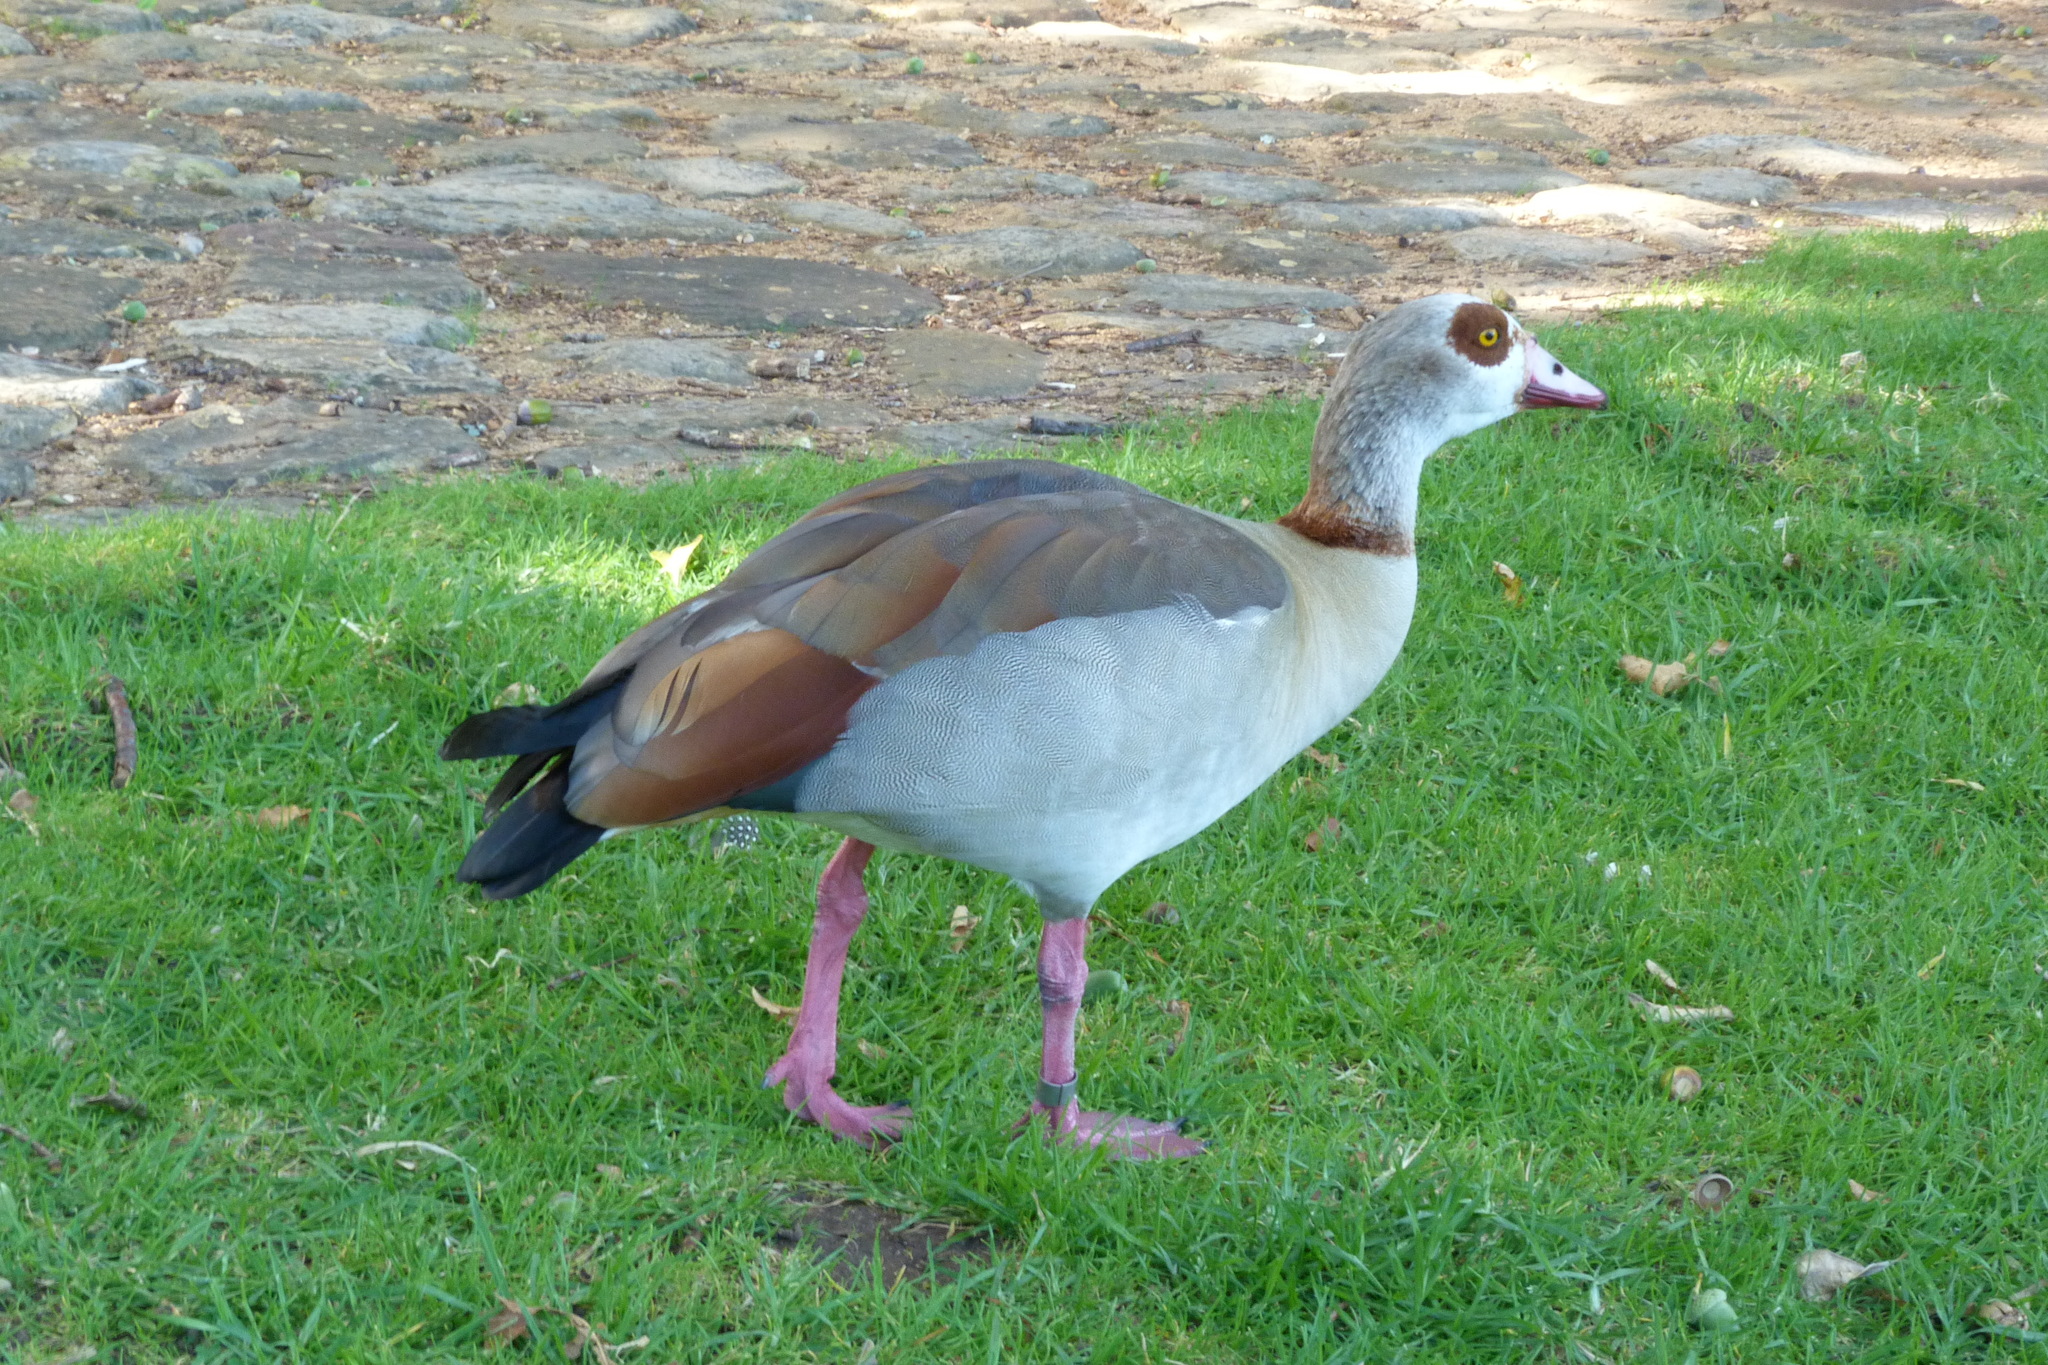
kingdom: Animalia
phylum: Chordata
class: Aves
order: Anseriformes
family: Anatidae
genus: Alopochen
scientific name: Alopochen aegyptiaca
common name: Egyptian goose
